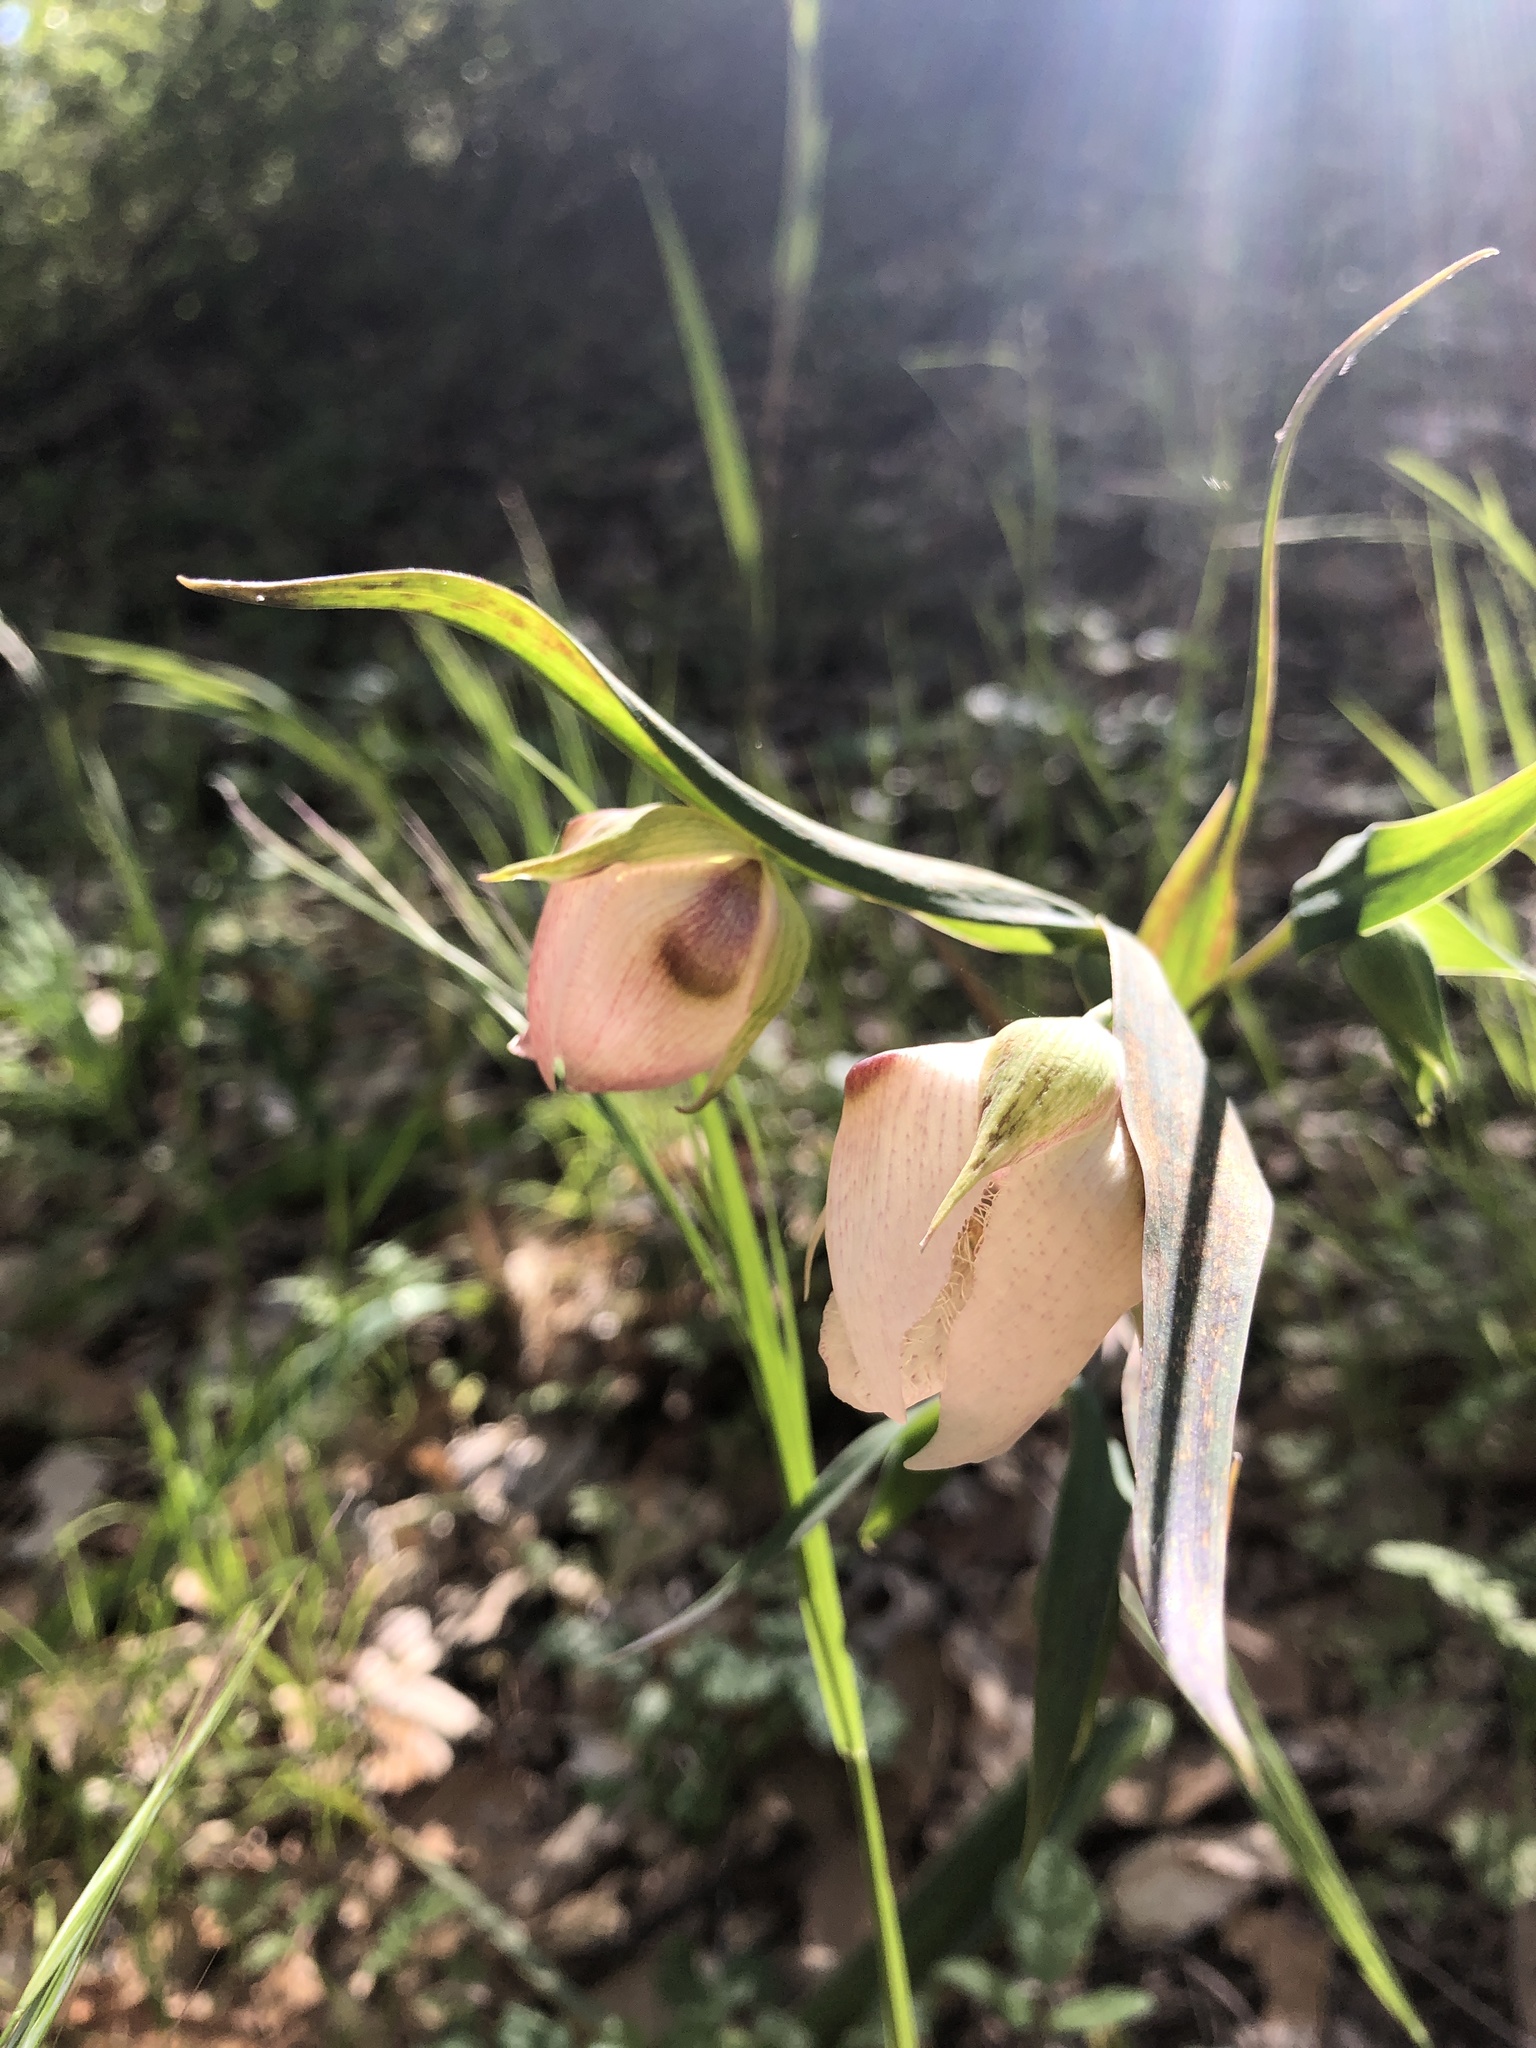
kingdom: Plantae
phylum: Tracheophyta
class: Liliopsida
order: Liliales
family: Liliaceae
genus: Calochortus
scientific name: Calochortus albus
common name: Fairy-lantern
